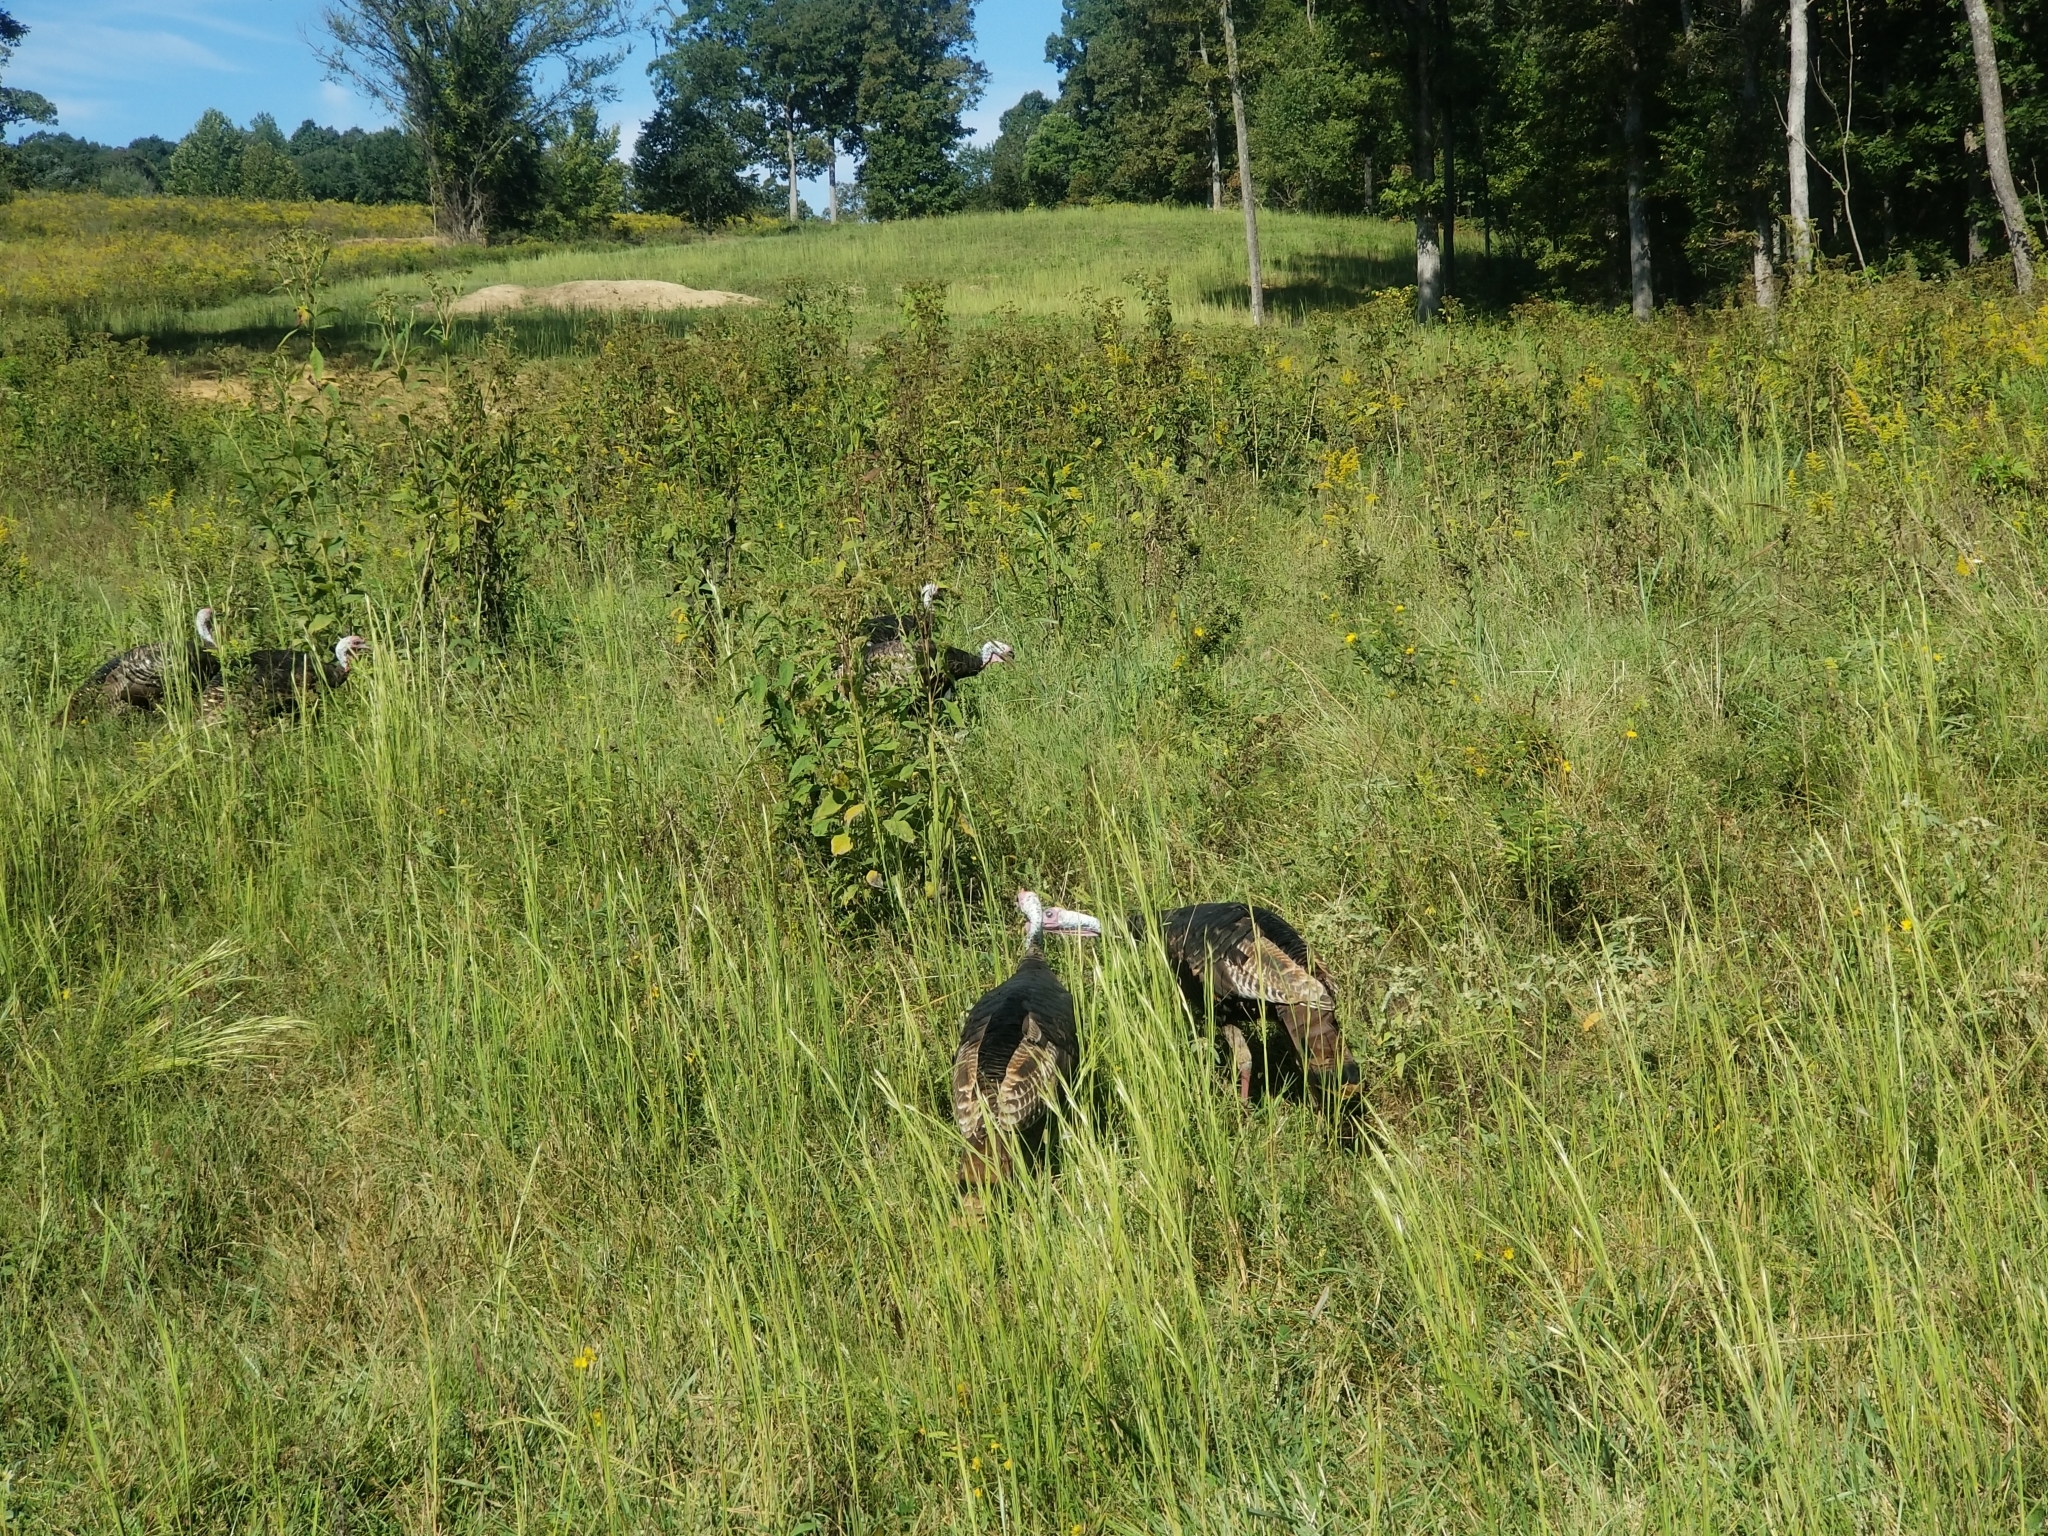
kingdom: Animalia
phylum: Chordata
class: Aves
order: Galliformes
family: Phasianidae
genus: Meleagris
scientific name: Meleagris gallopavo
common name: Wild turkey
